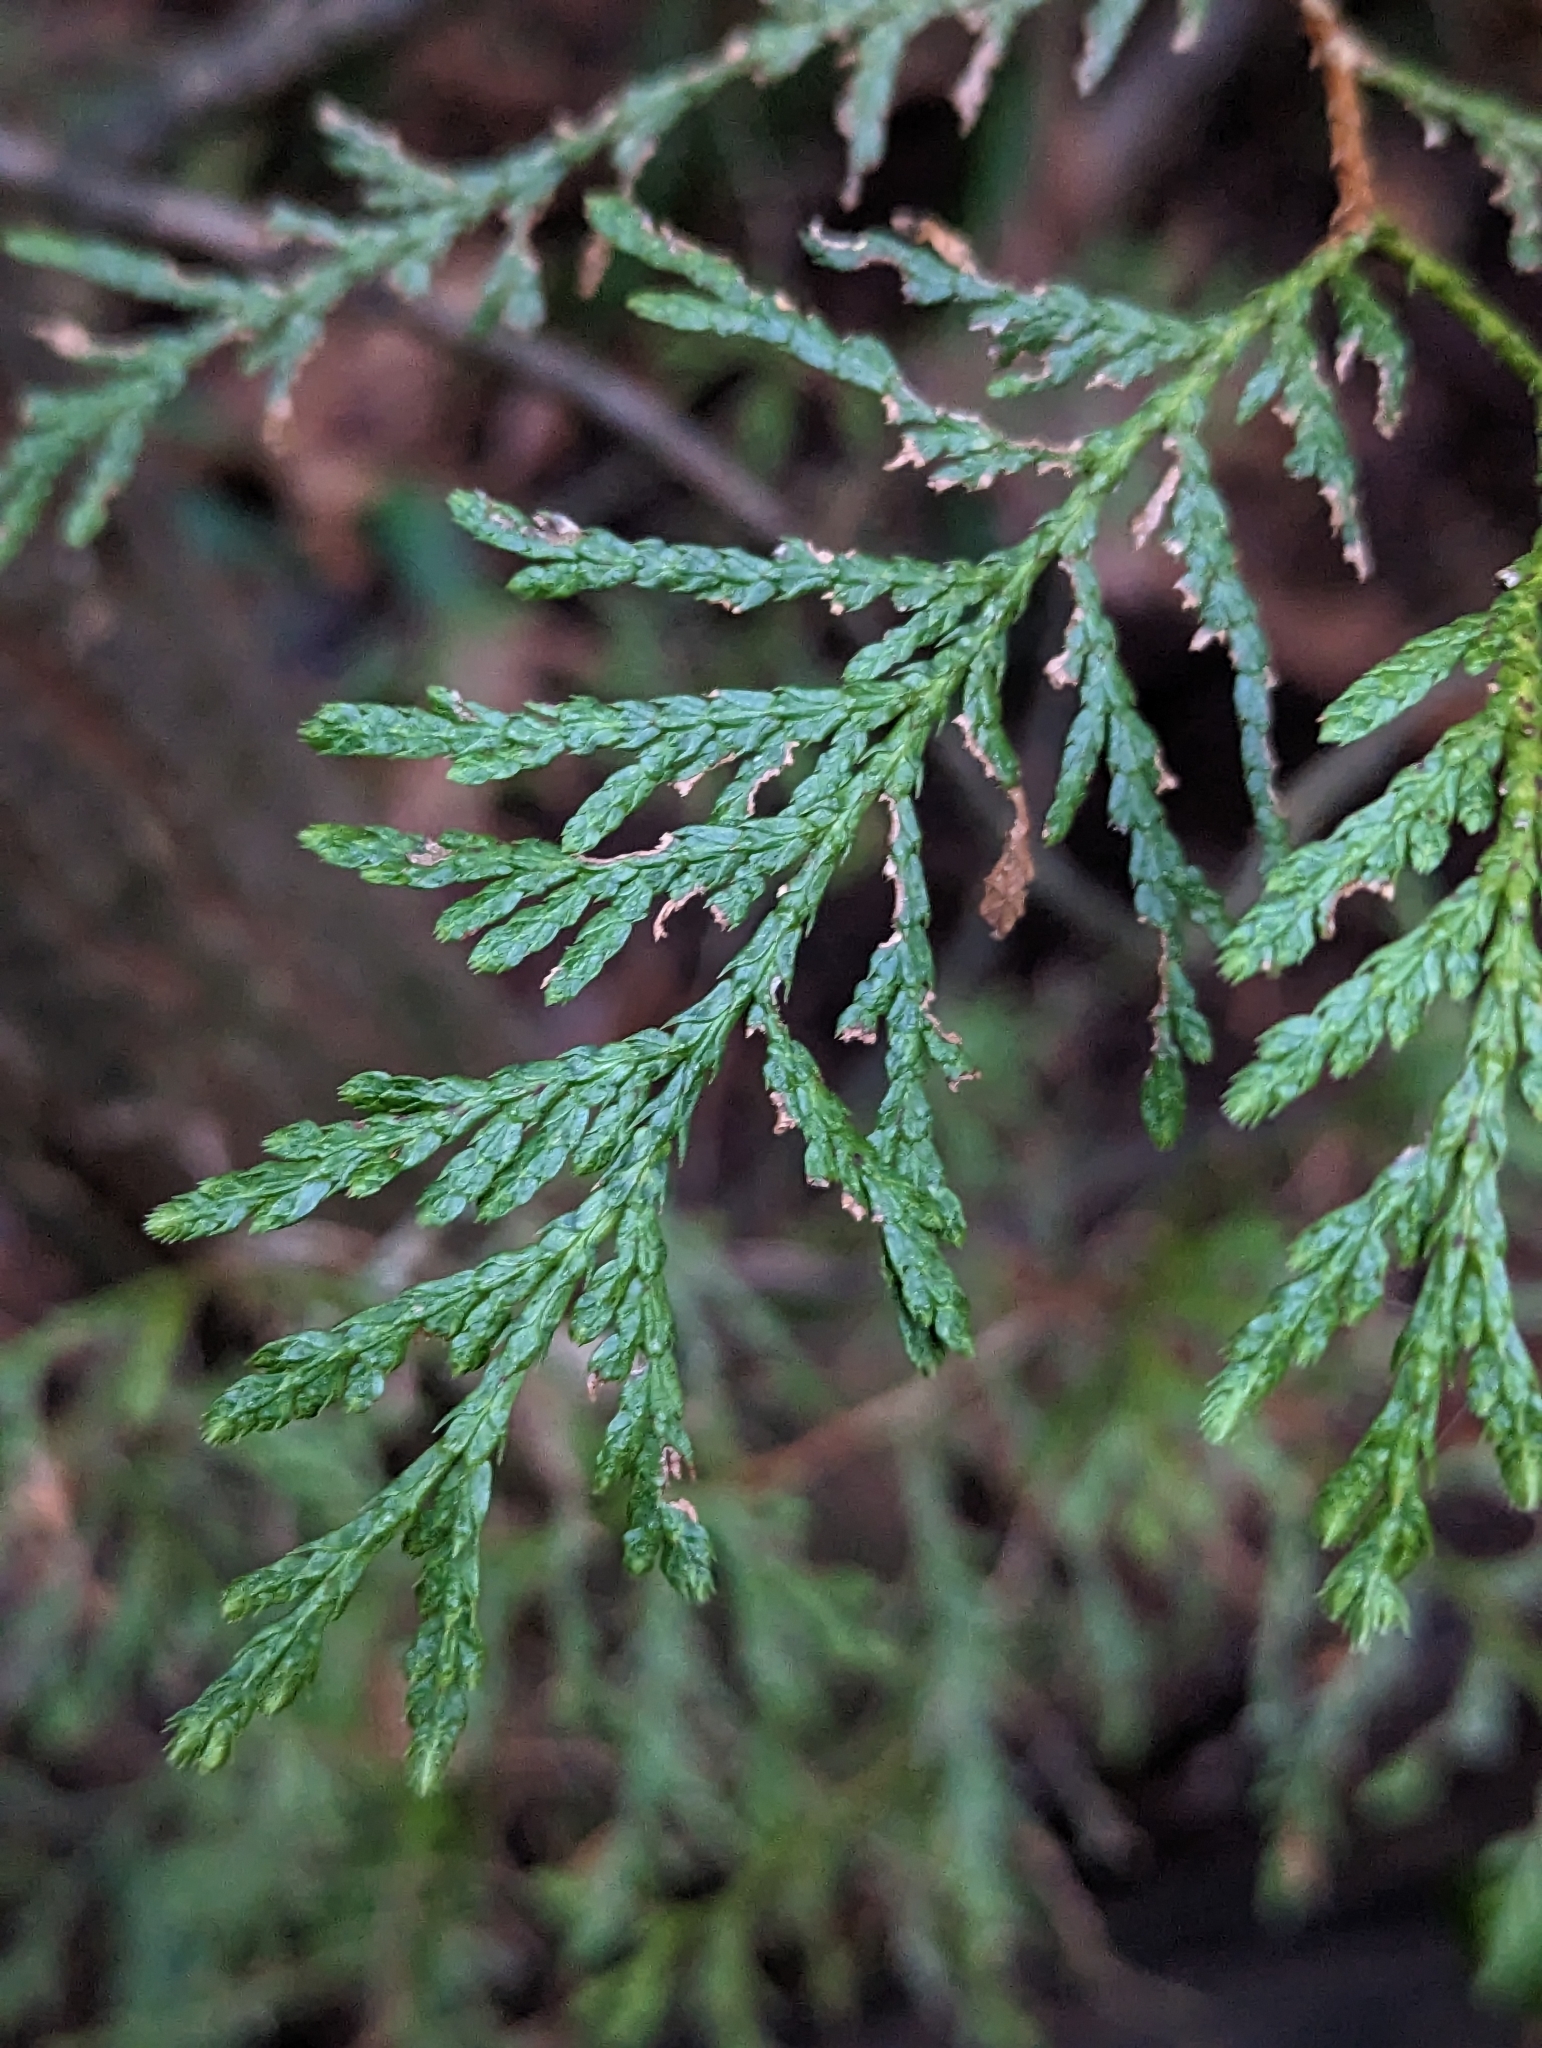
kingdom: Plantae
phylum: Tracheophyta
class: Pinopsida
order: Pinales
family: Cupressaceae
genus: Thuja
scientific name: Thuja plicata
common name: Western red-cedar
